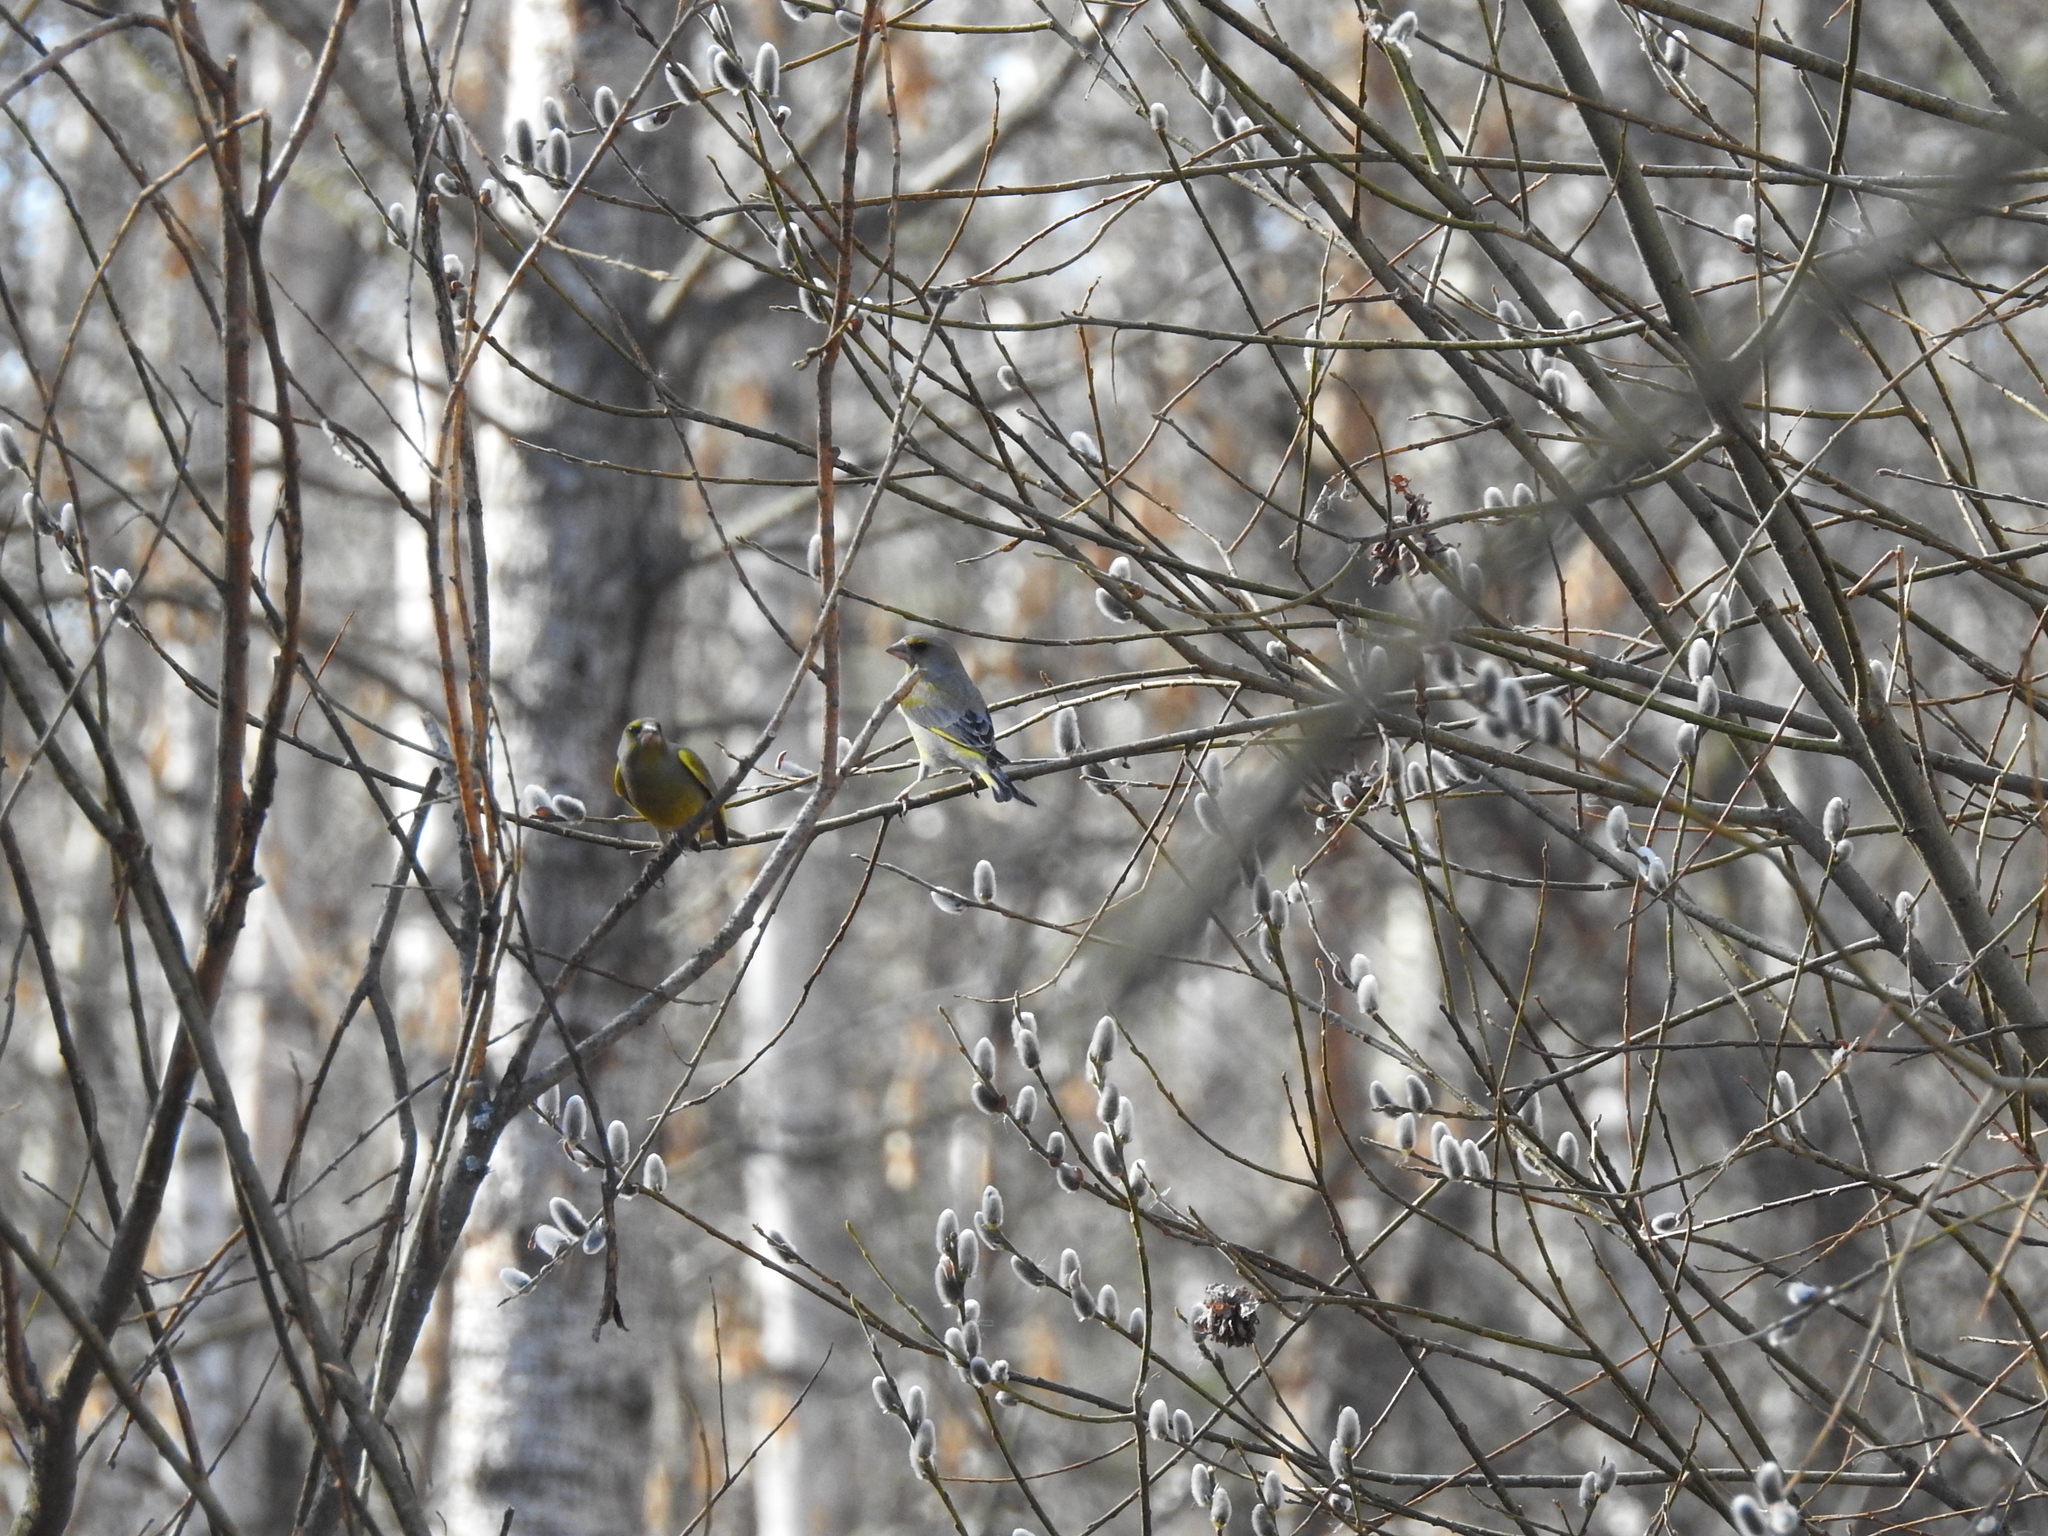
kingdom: Plantae
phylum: Tracheophyta
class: Liliopsida
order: Poales
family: Poaceae
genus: Chloris
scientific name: Chloris chloris
